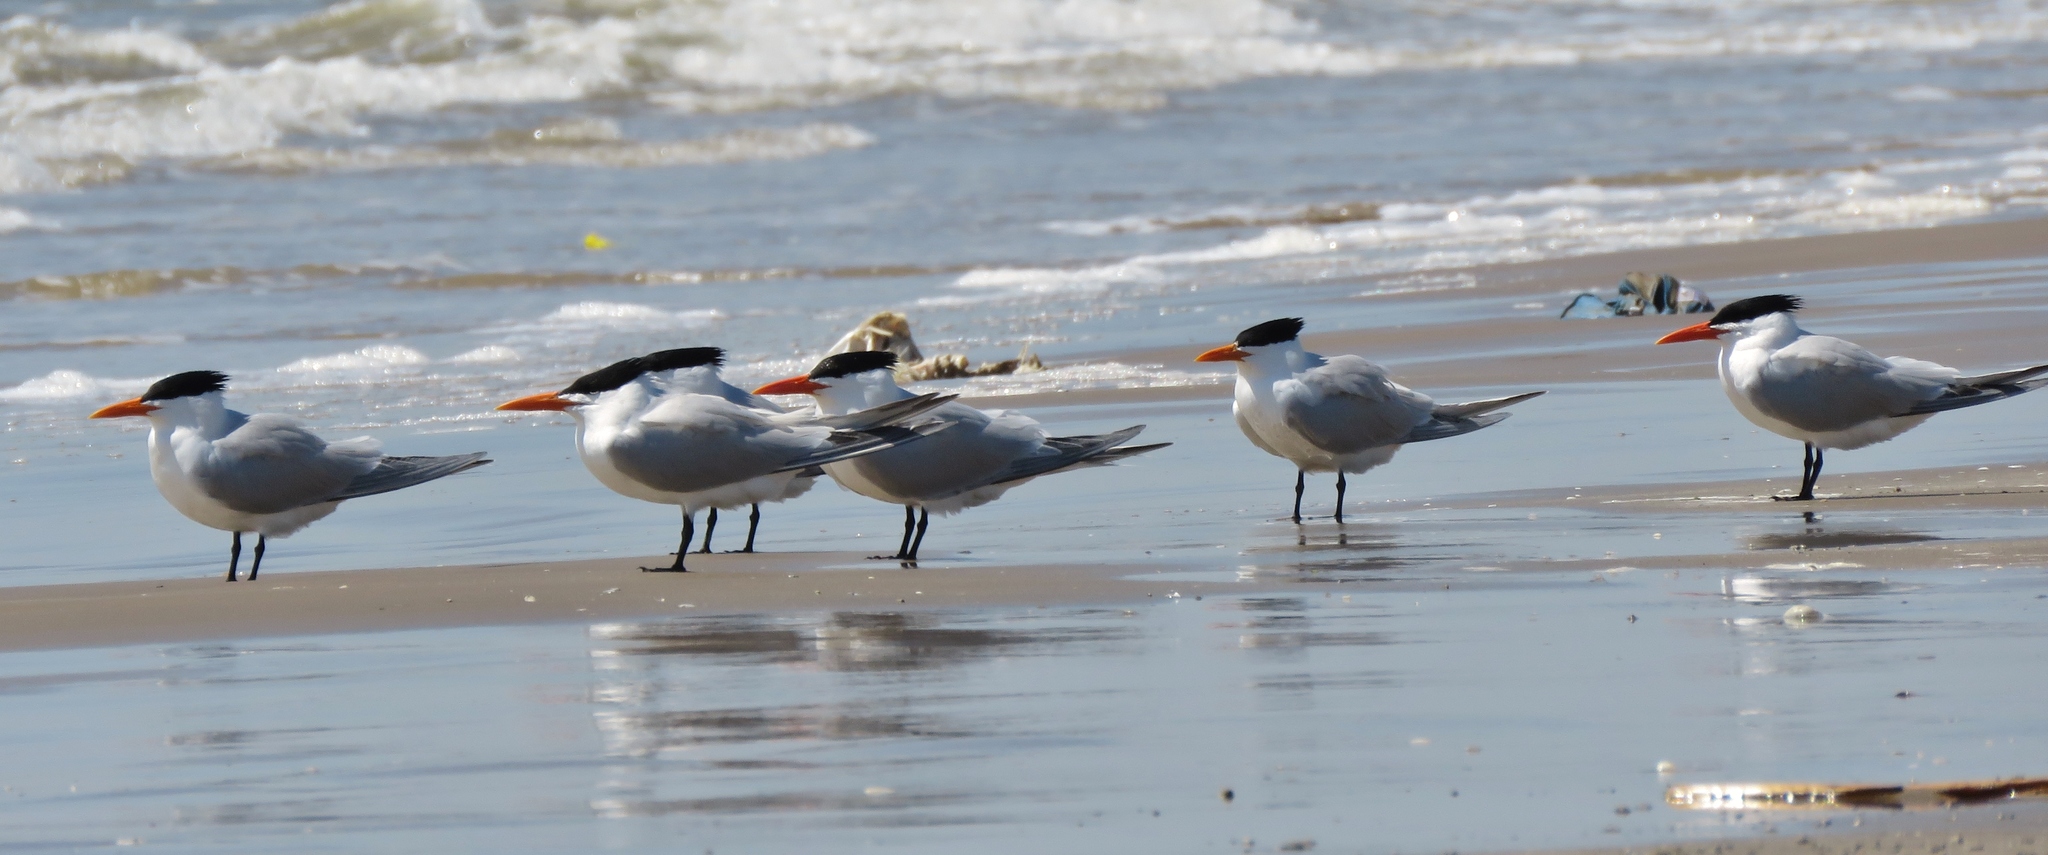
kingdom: Animalia
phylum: Chordata
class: Aves
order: Charadriiformes
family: Laridae
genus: Thalasseus
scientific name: Thalasseus maximus
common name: Royal tern
